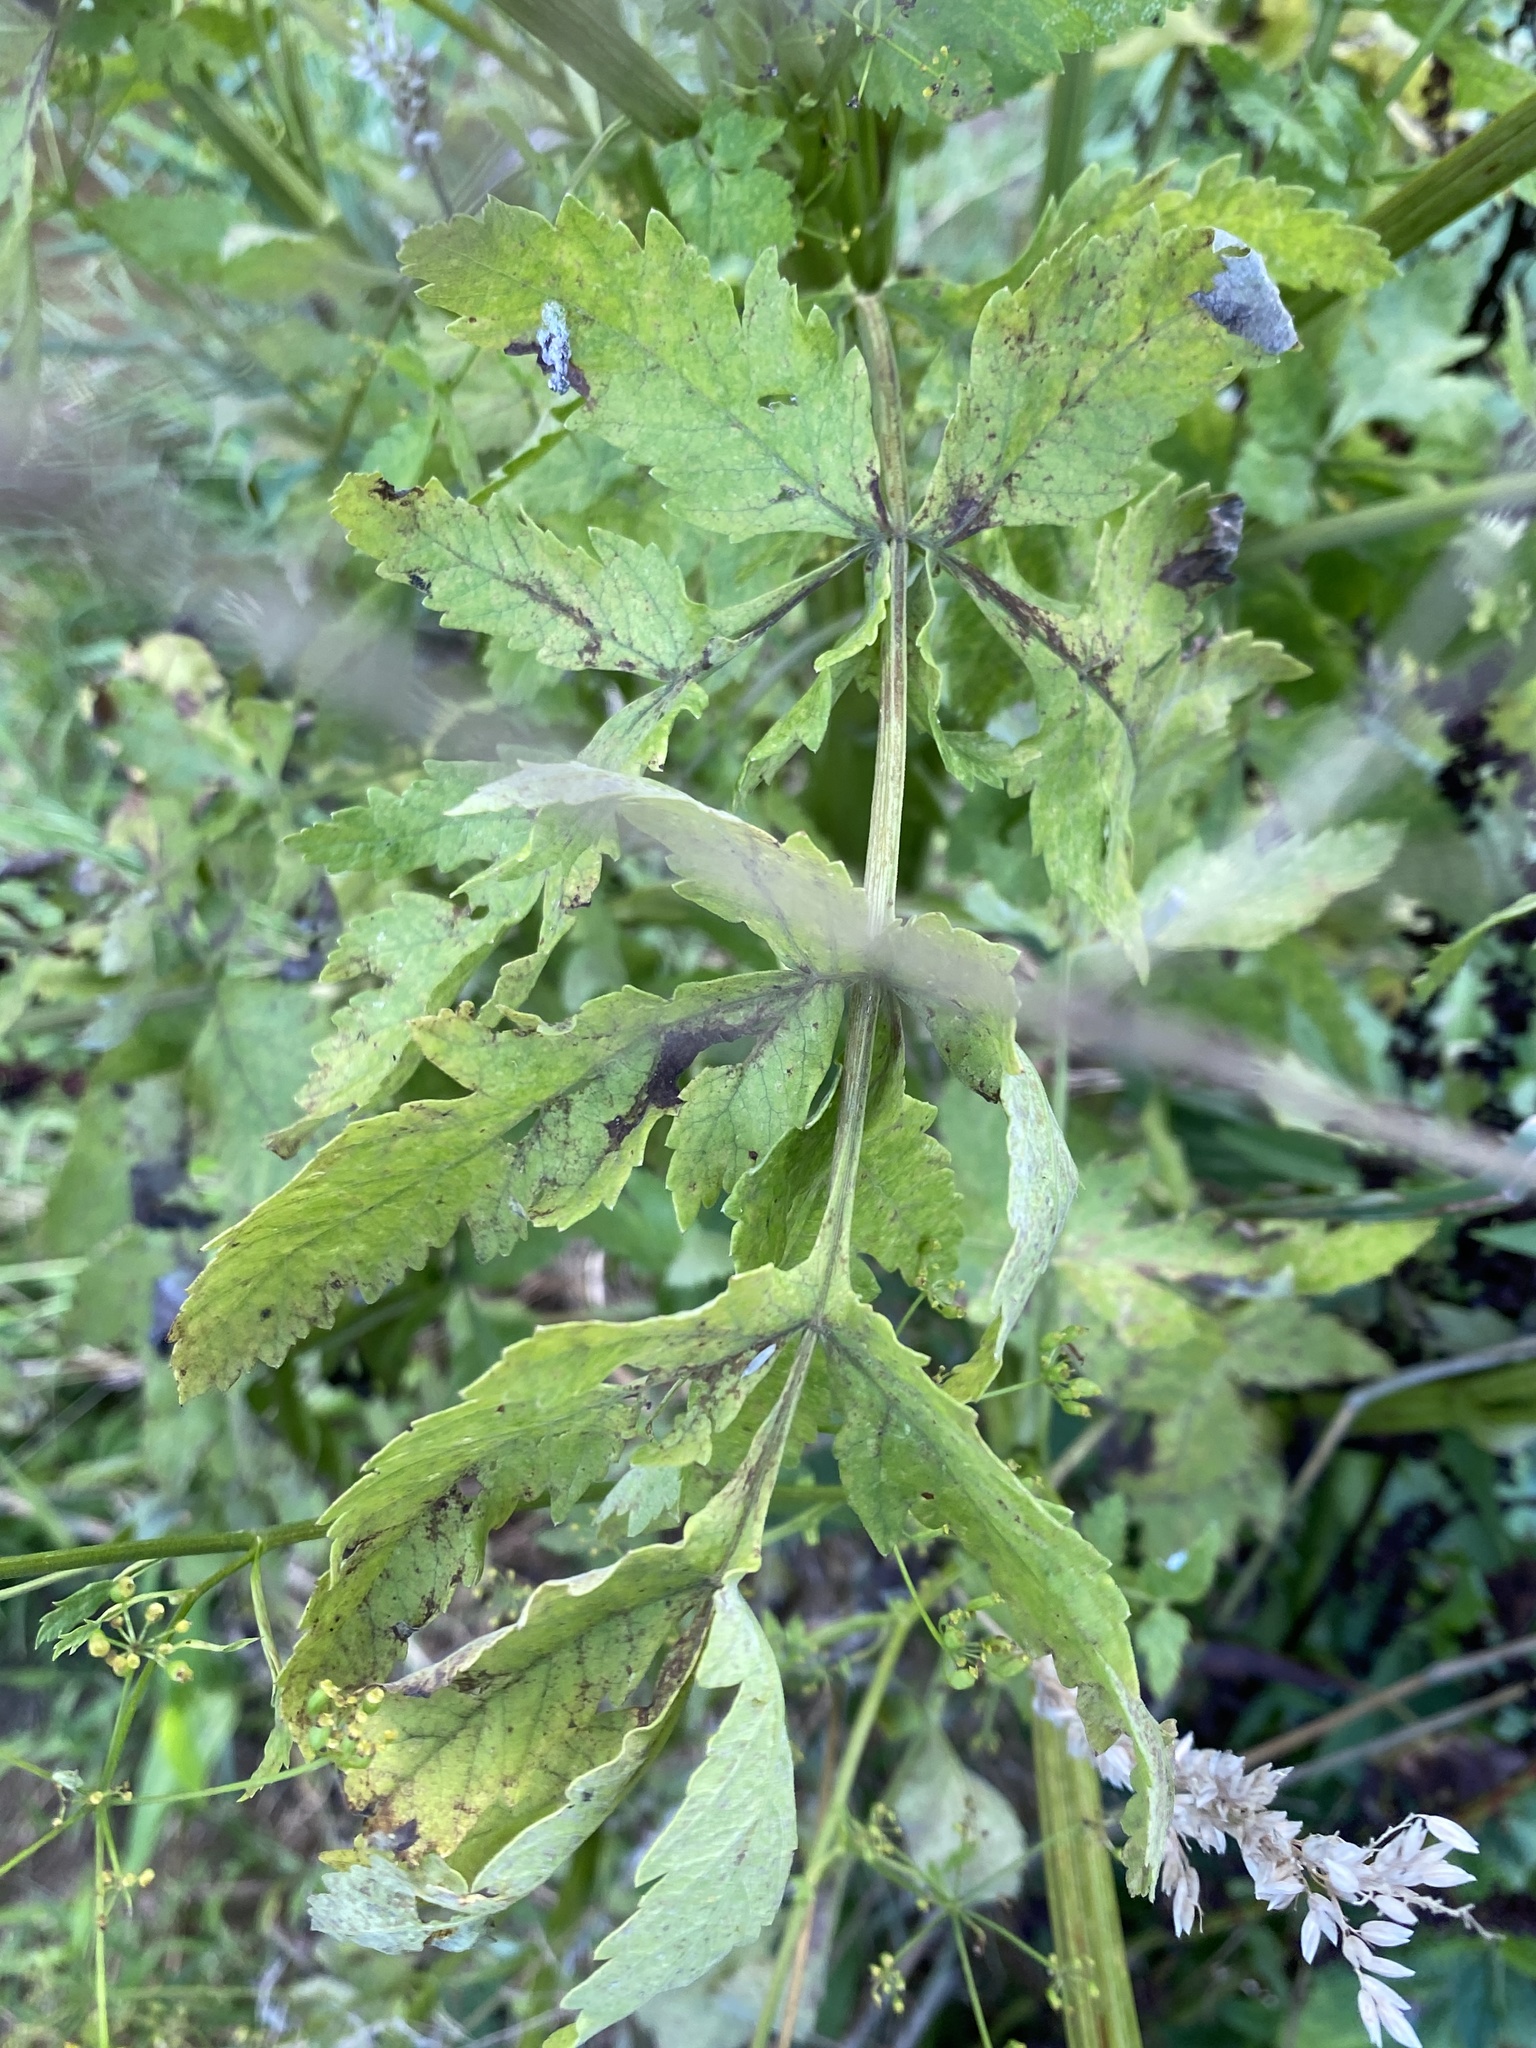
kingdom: Plantae
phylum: Tracheophyta
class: Magnoliopsida
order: Apiales
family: Apiaceae
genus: Pastinaca
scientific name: Pastinaca sativa
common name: Wild parsnip
